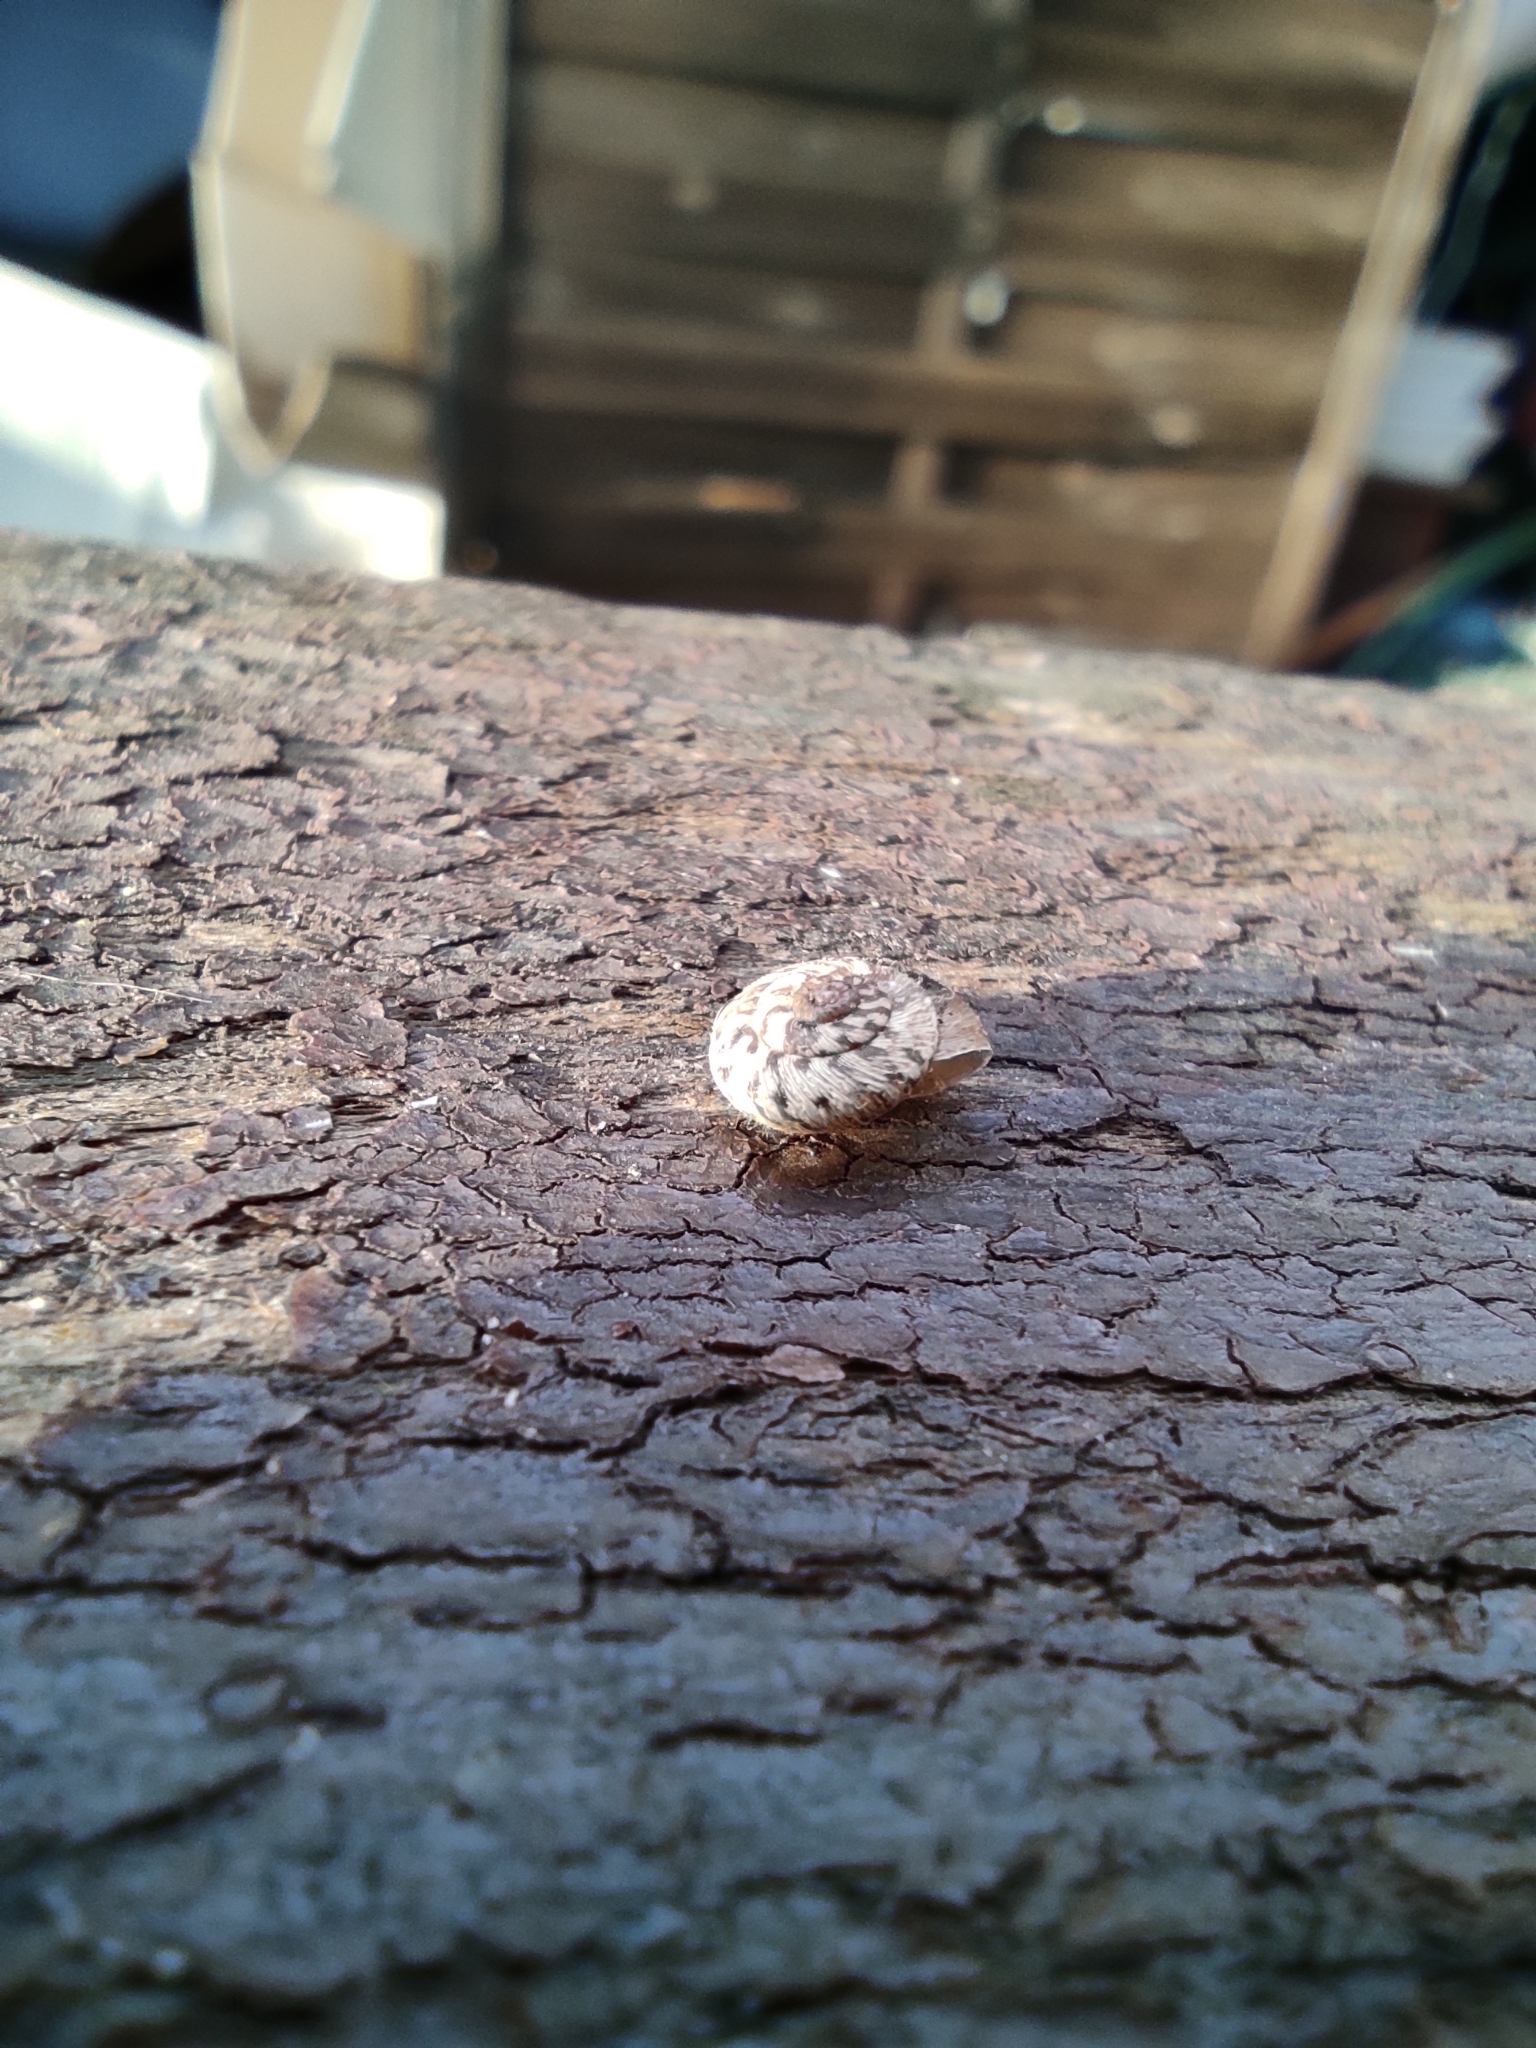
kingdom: Animalia
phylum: Mollusca
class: Gastropoda
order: Stylommatophora
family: Geomitridae
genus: Xerotricha
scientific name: Xerotricha conspurcata
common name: Snail
